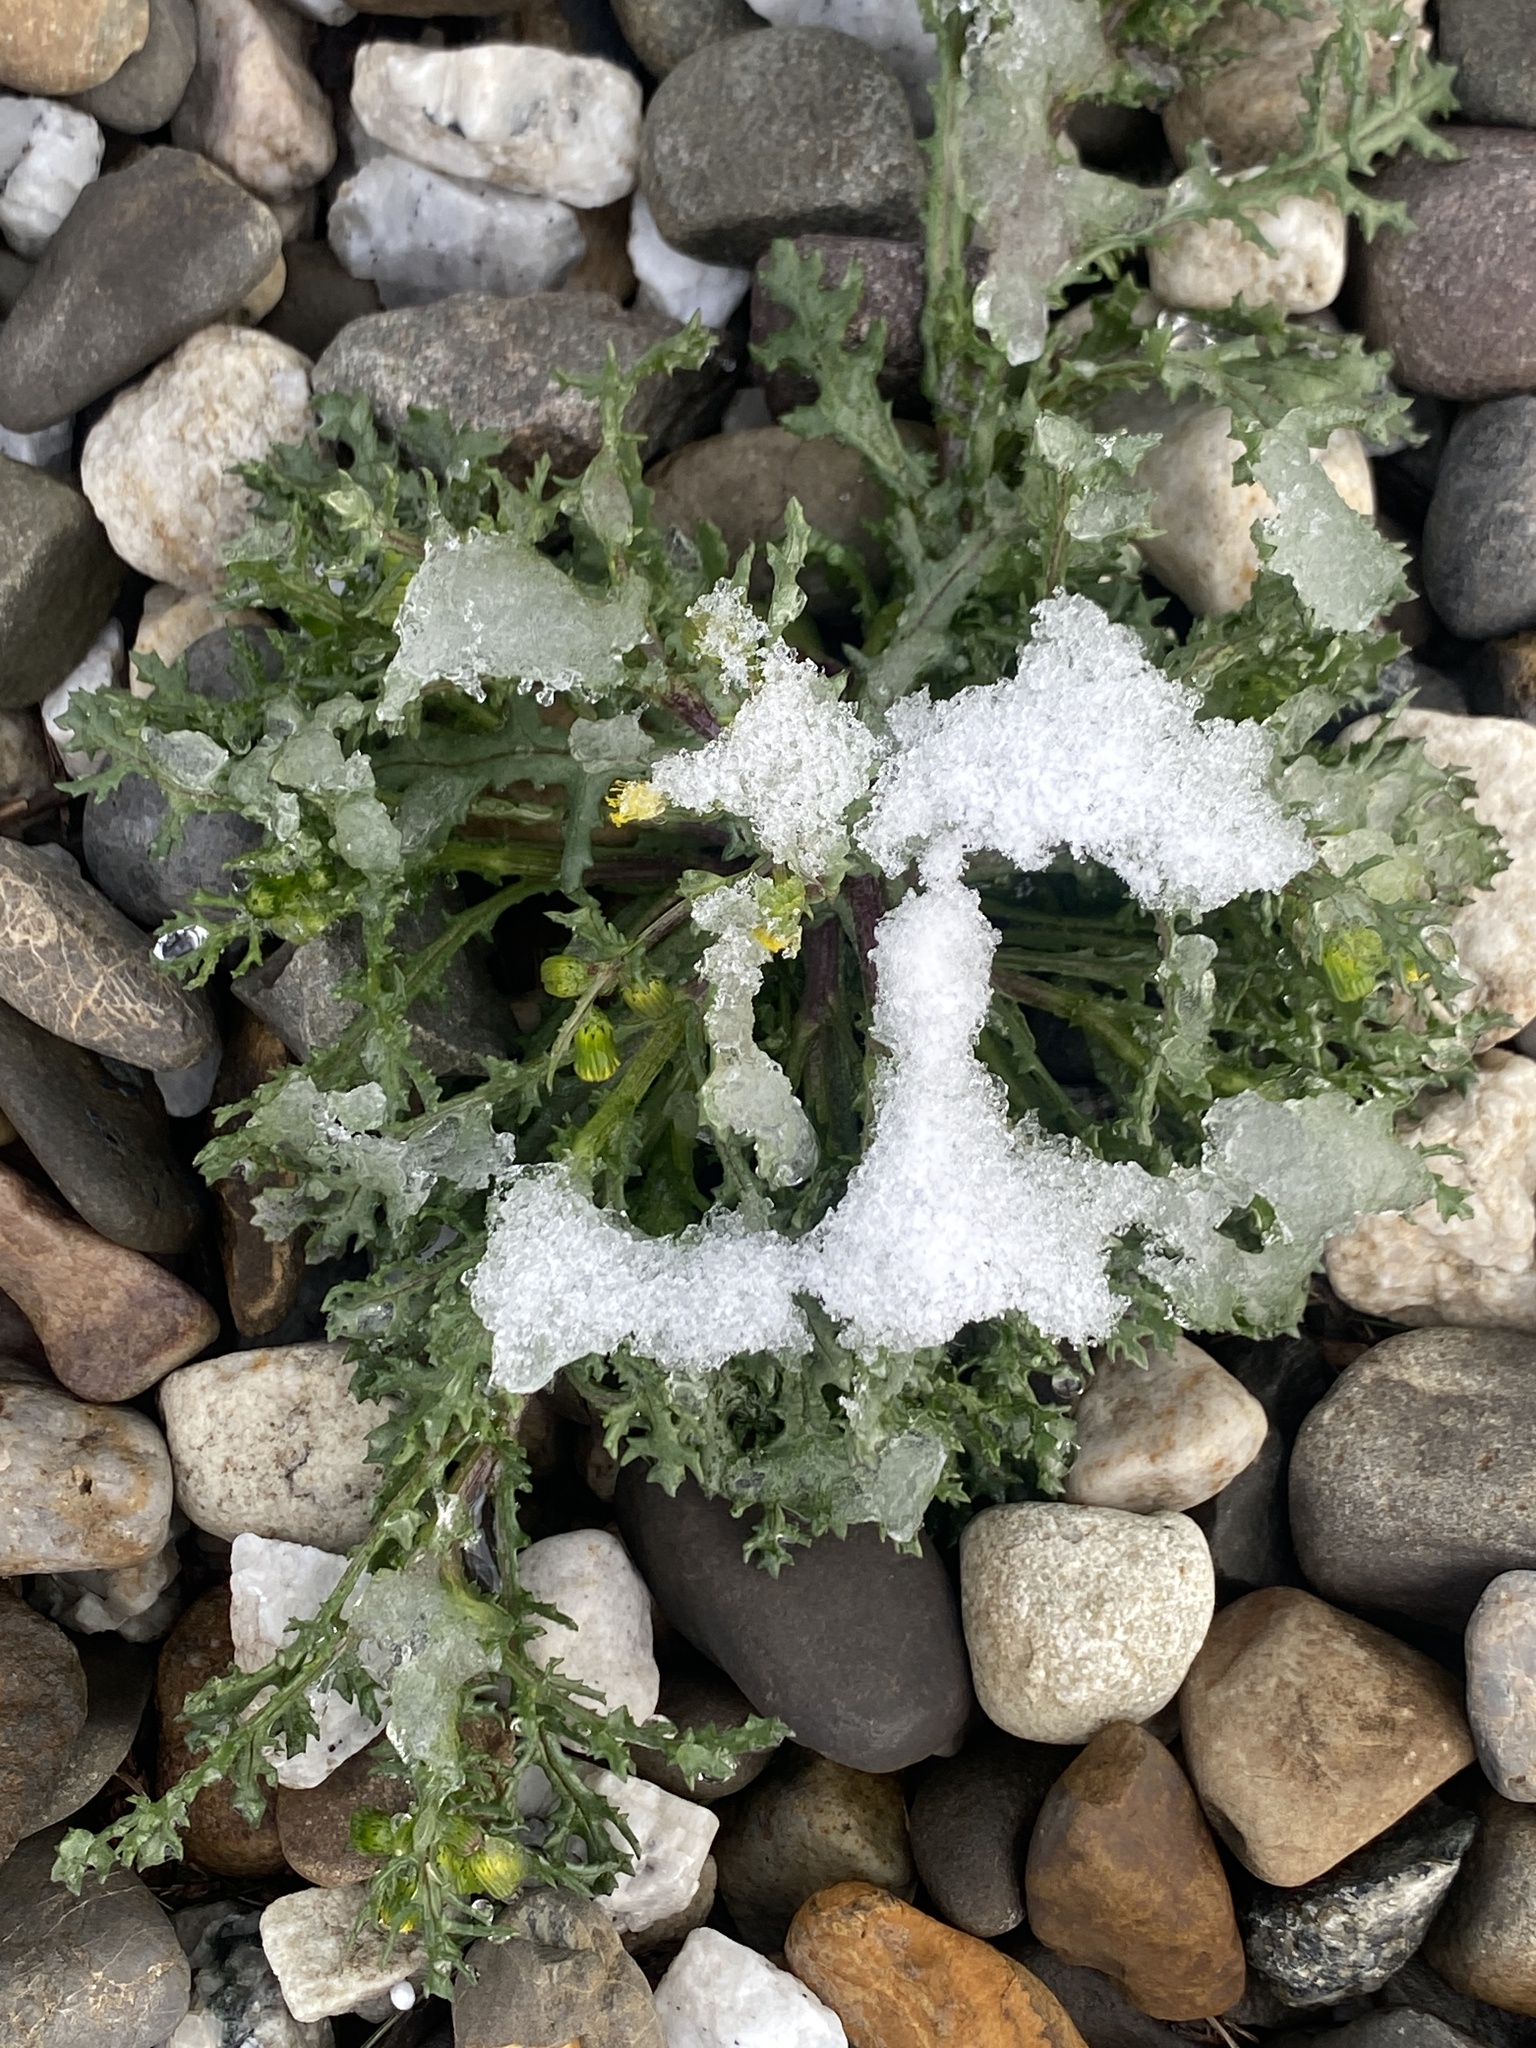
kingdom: Plantae
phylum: Tracheophyta
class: Magnoliopsida
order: Asterales
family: Asteraceae
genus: Senecio
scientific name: Senecio vulgaris
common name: Old-man-in-the-spring
